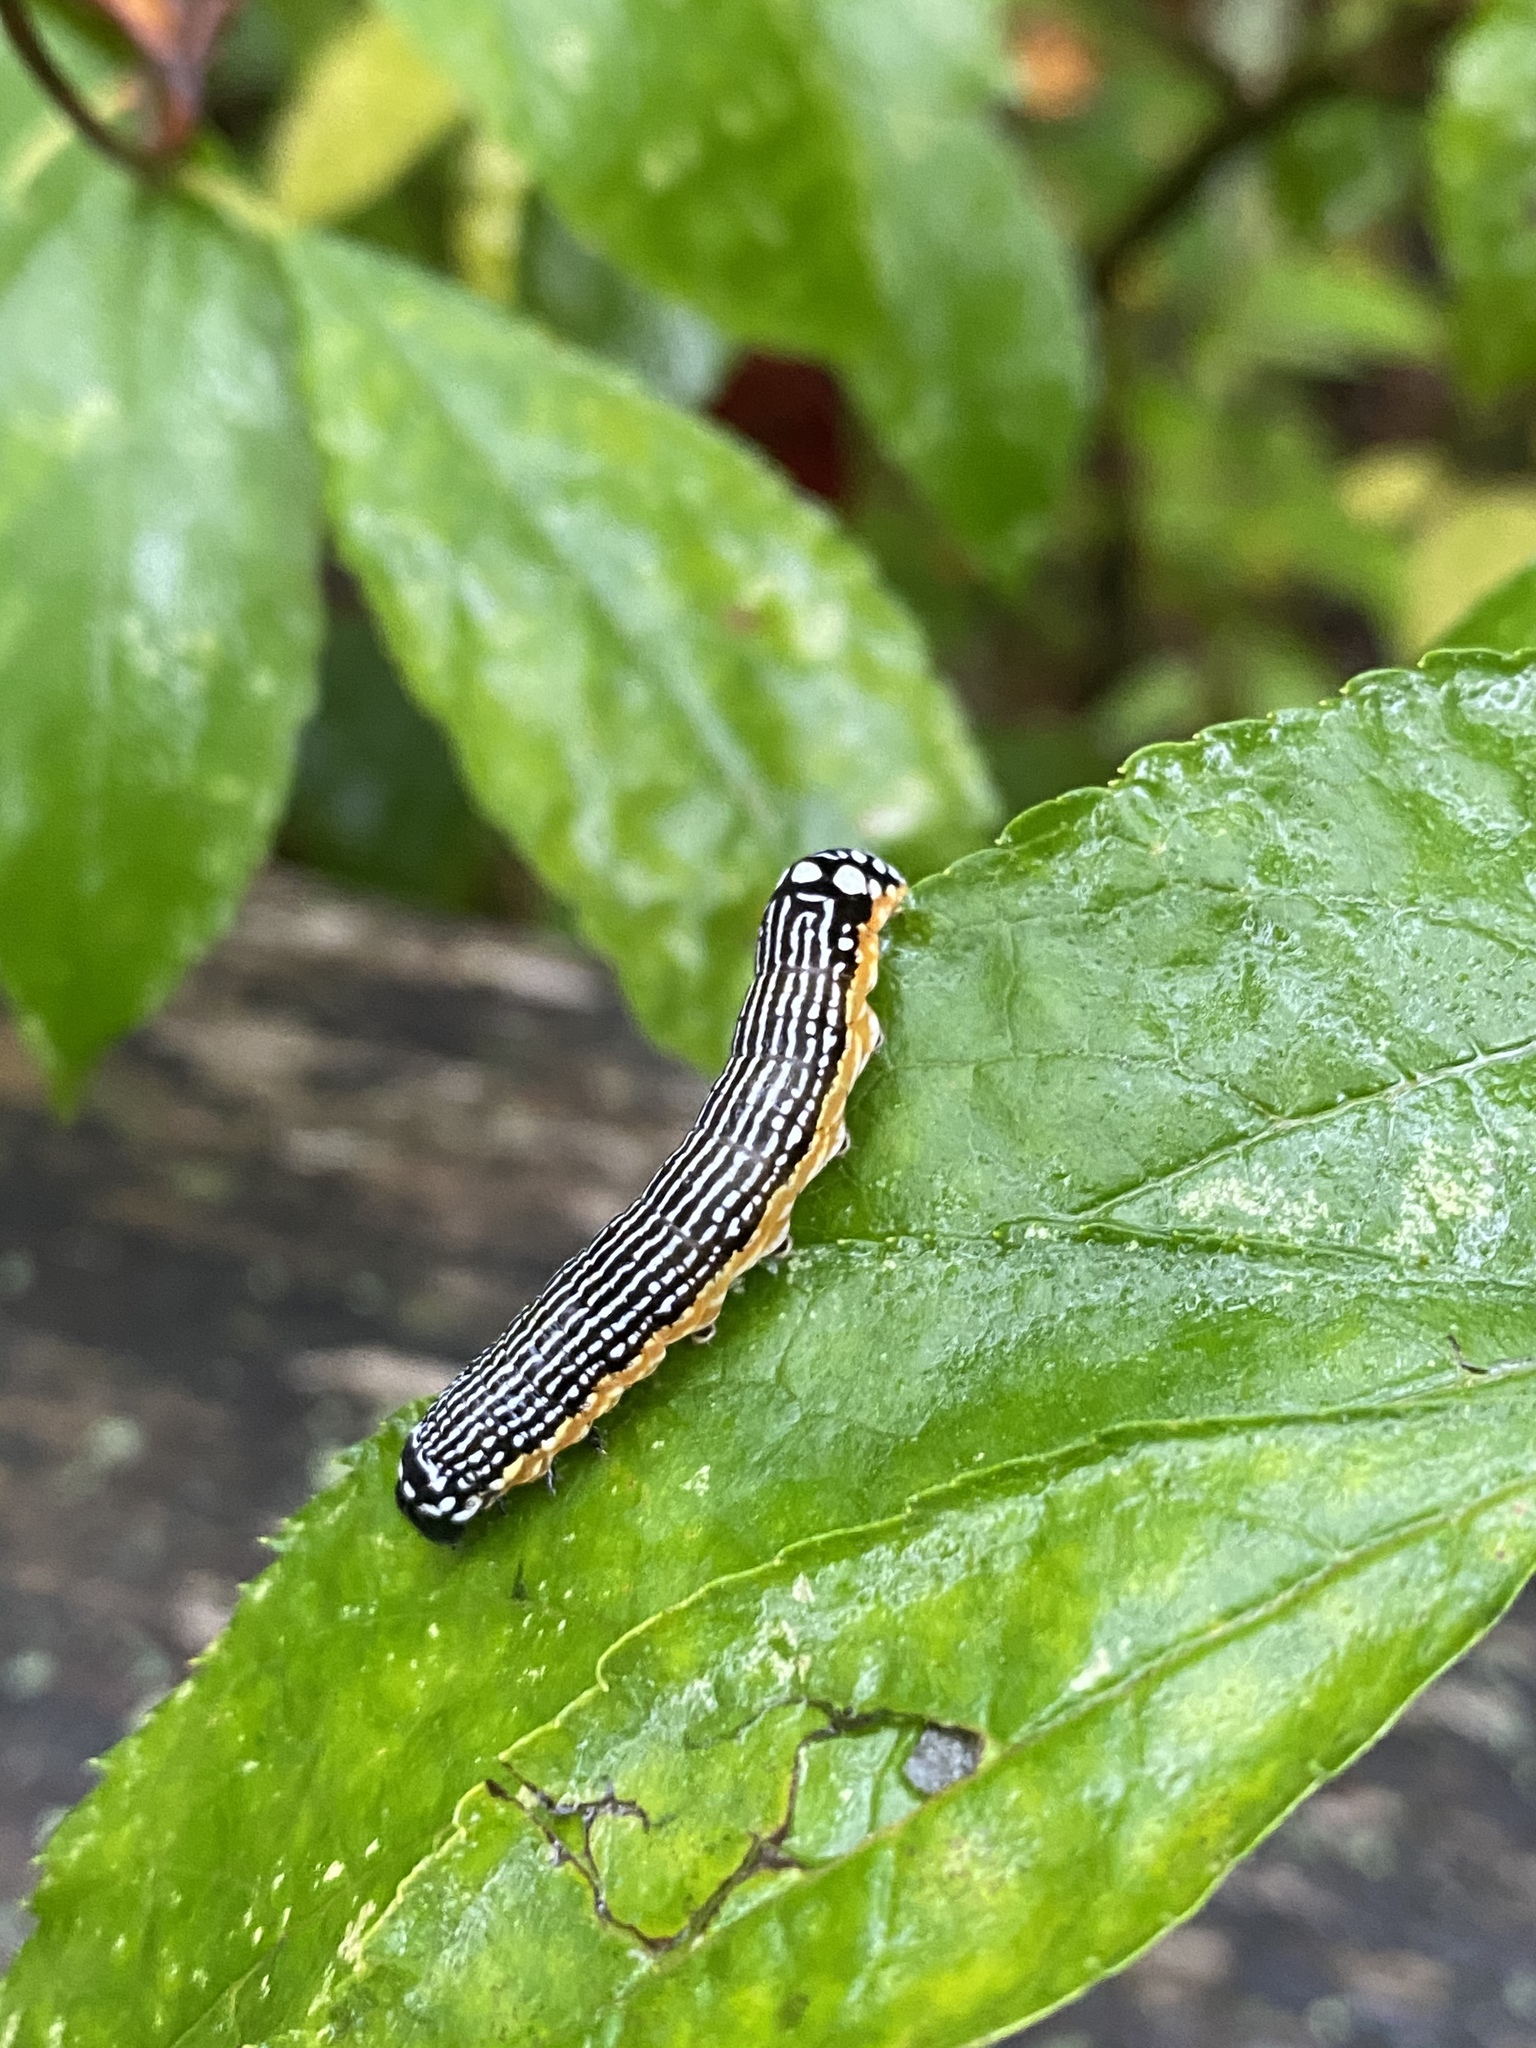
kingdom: Animalia
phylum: Arthropoda
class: Insecta
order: Lepidoptera
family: Noctuidae
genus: Phosphila
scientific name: Phosphila turbulenta
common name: Turbulent phosphila moth
